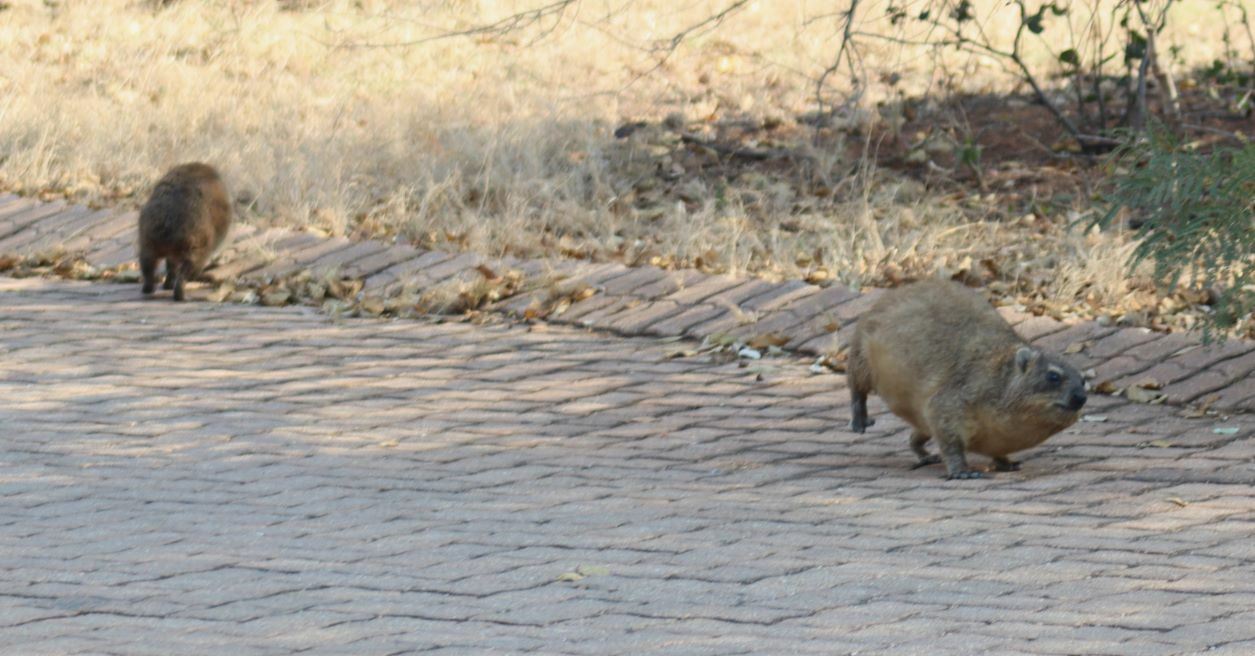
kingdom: Animalia
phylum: Chordata
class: Mammalia
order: Hyracoidea
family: Procaviidae
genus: Procavia
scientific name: Procavia capensis
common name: Rock hyrax
